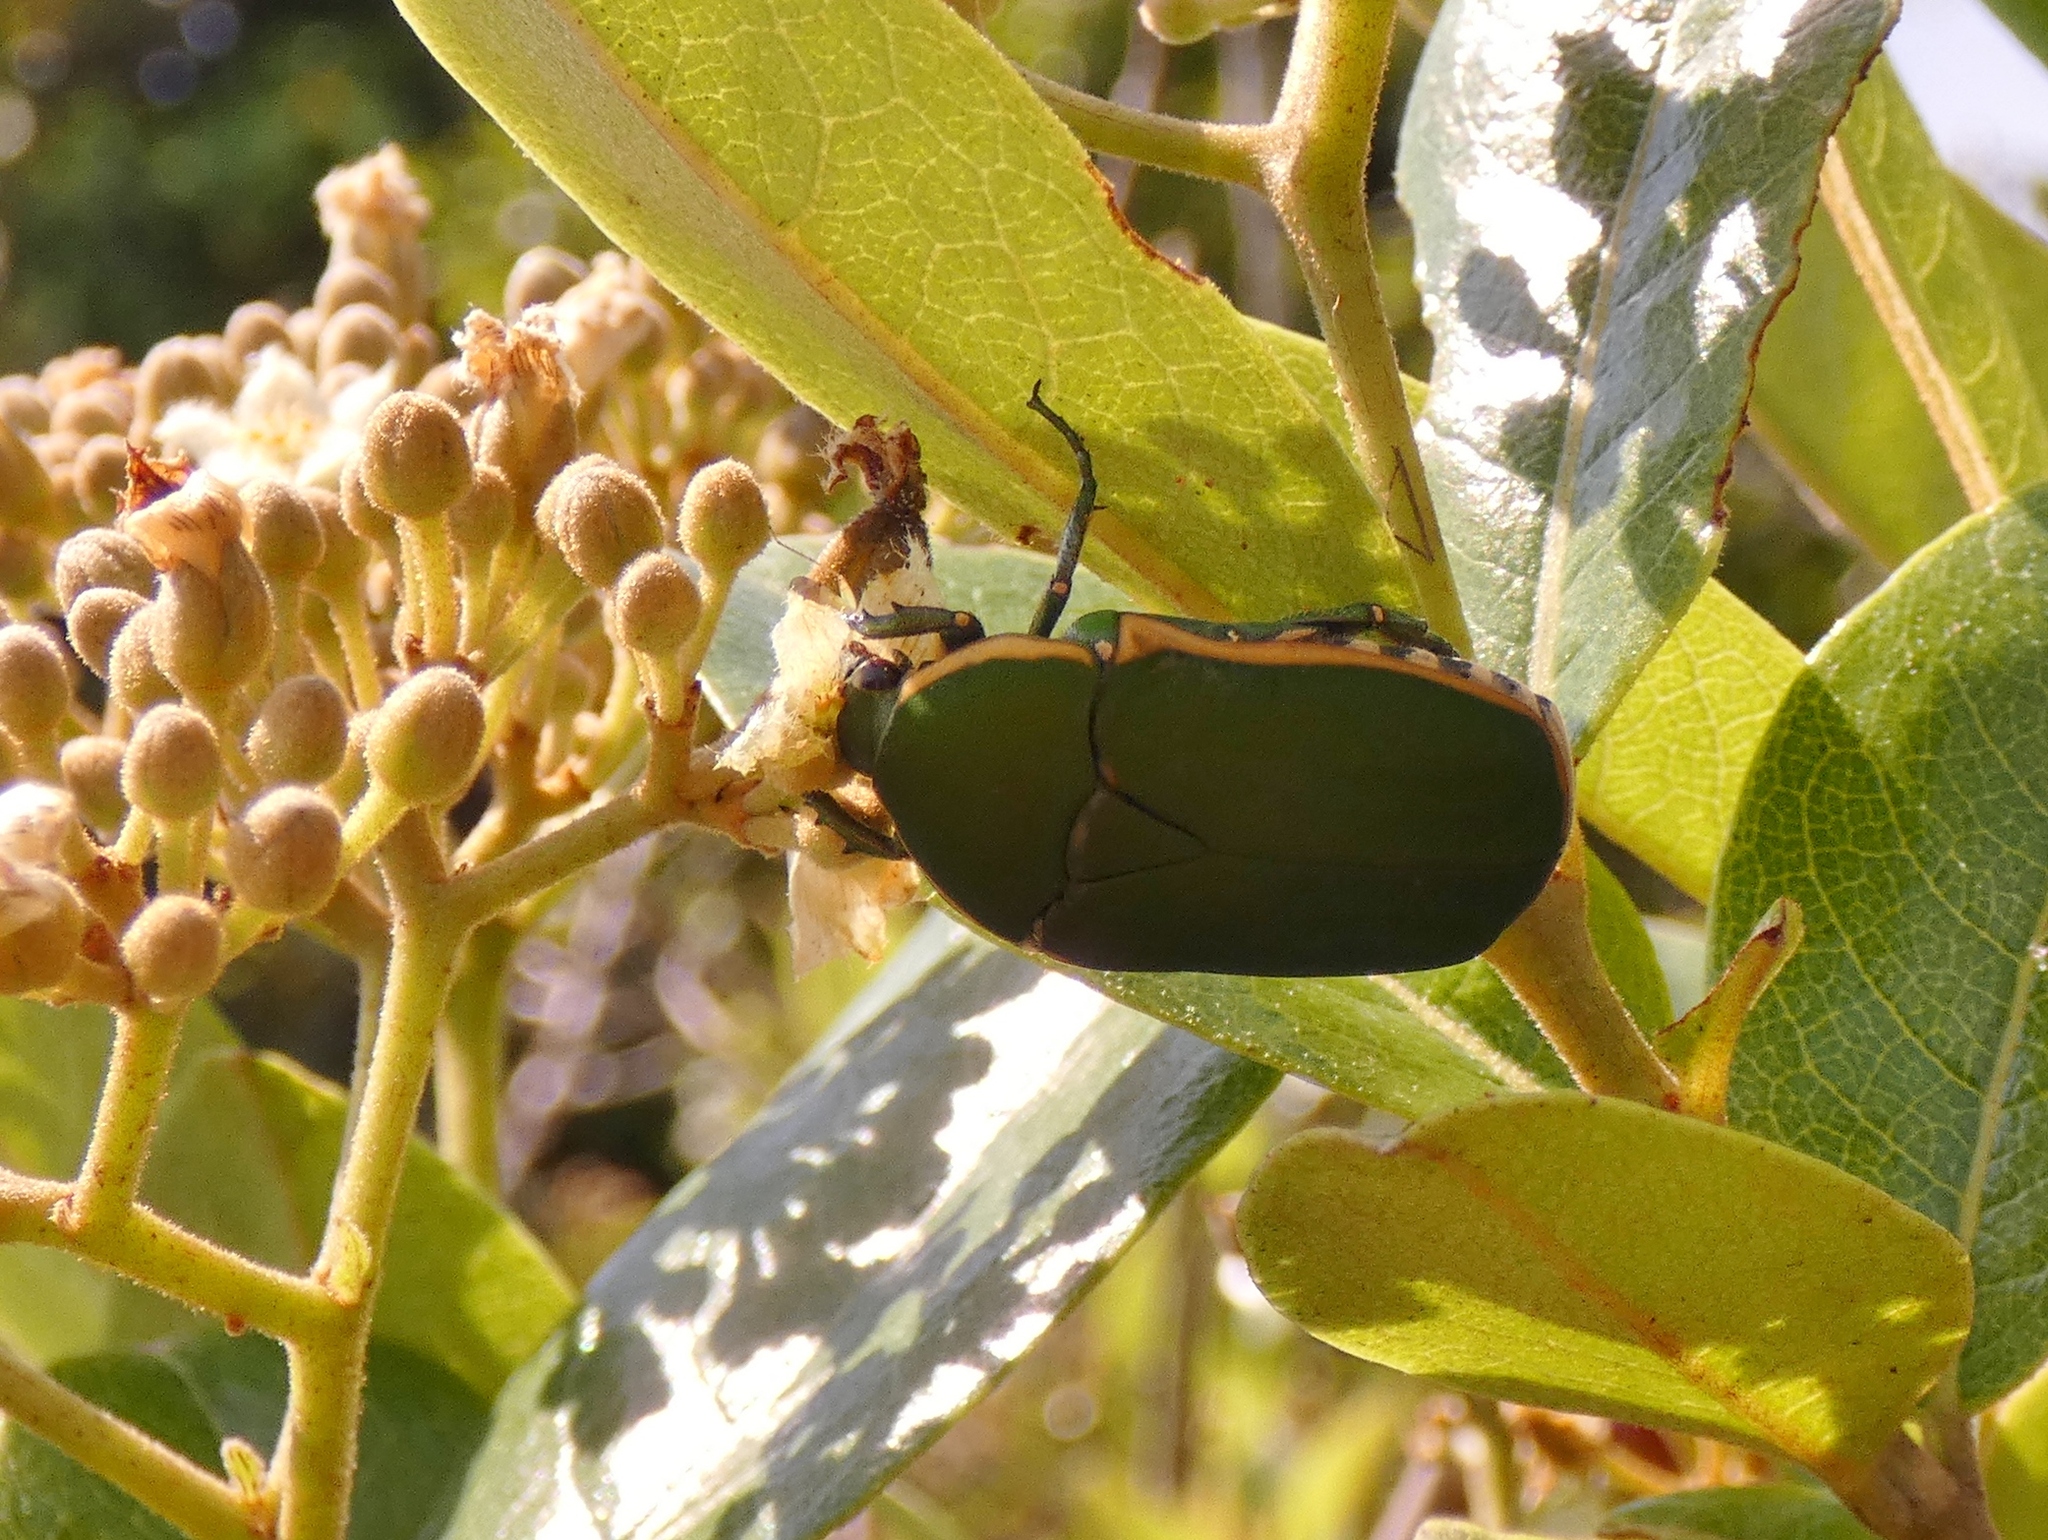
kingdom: Animalia
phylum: Arthropoda
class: Insecta
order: Coleoptera
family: Scarabaeidae
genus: Marmylida
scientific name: Marmylida Pachnodella marginella
